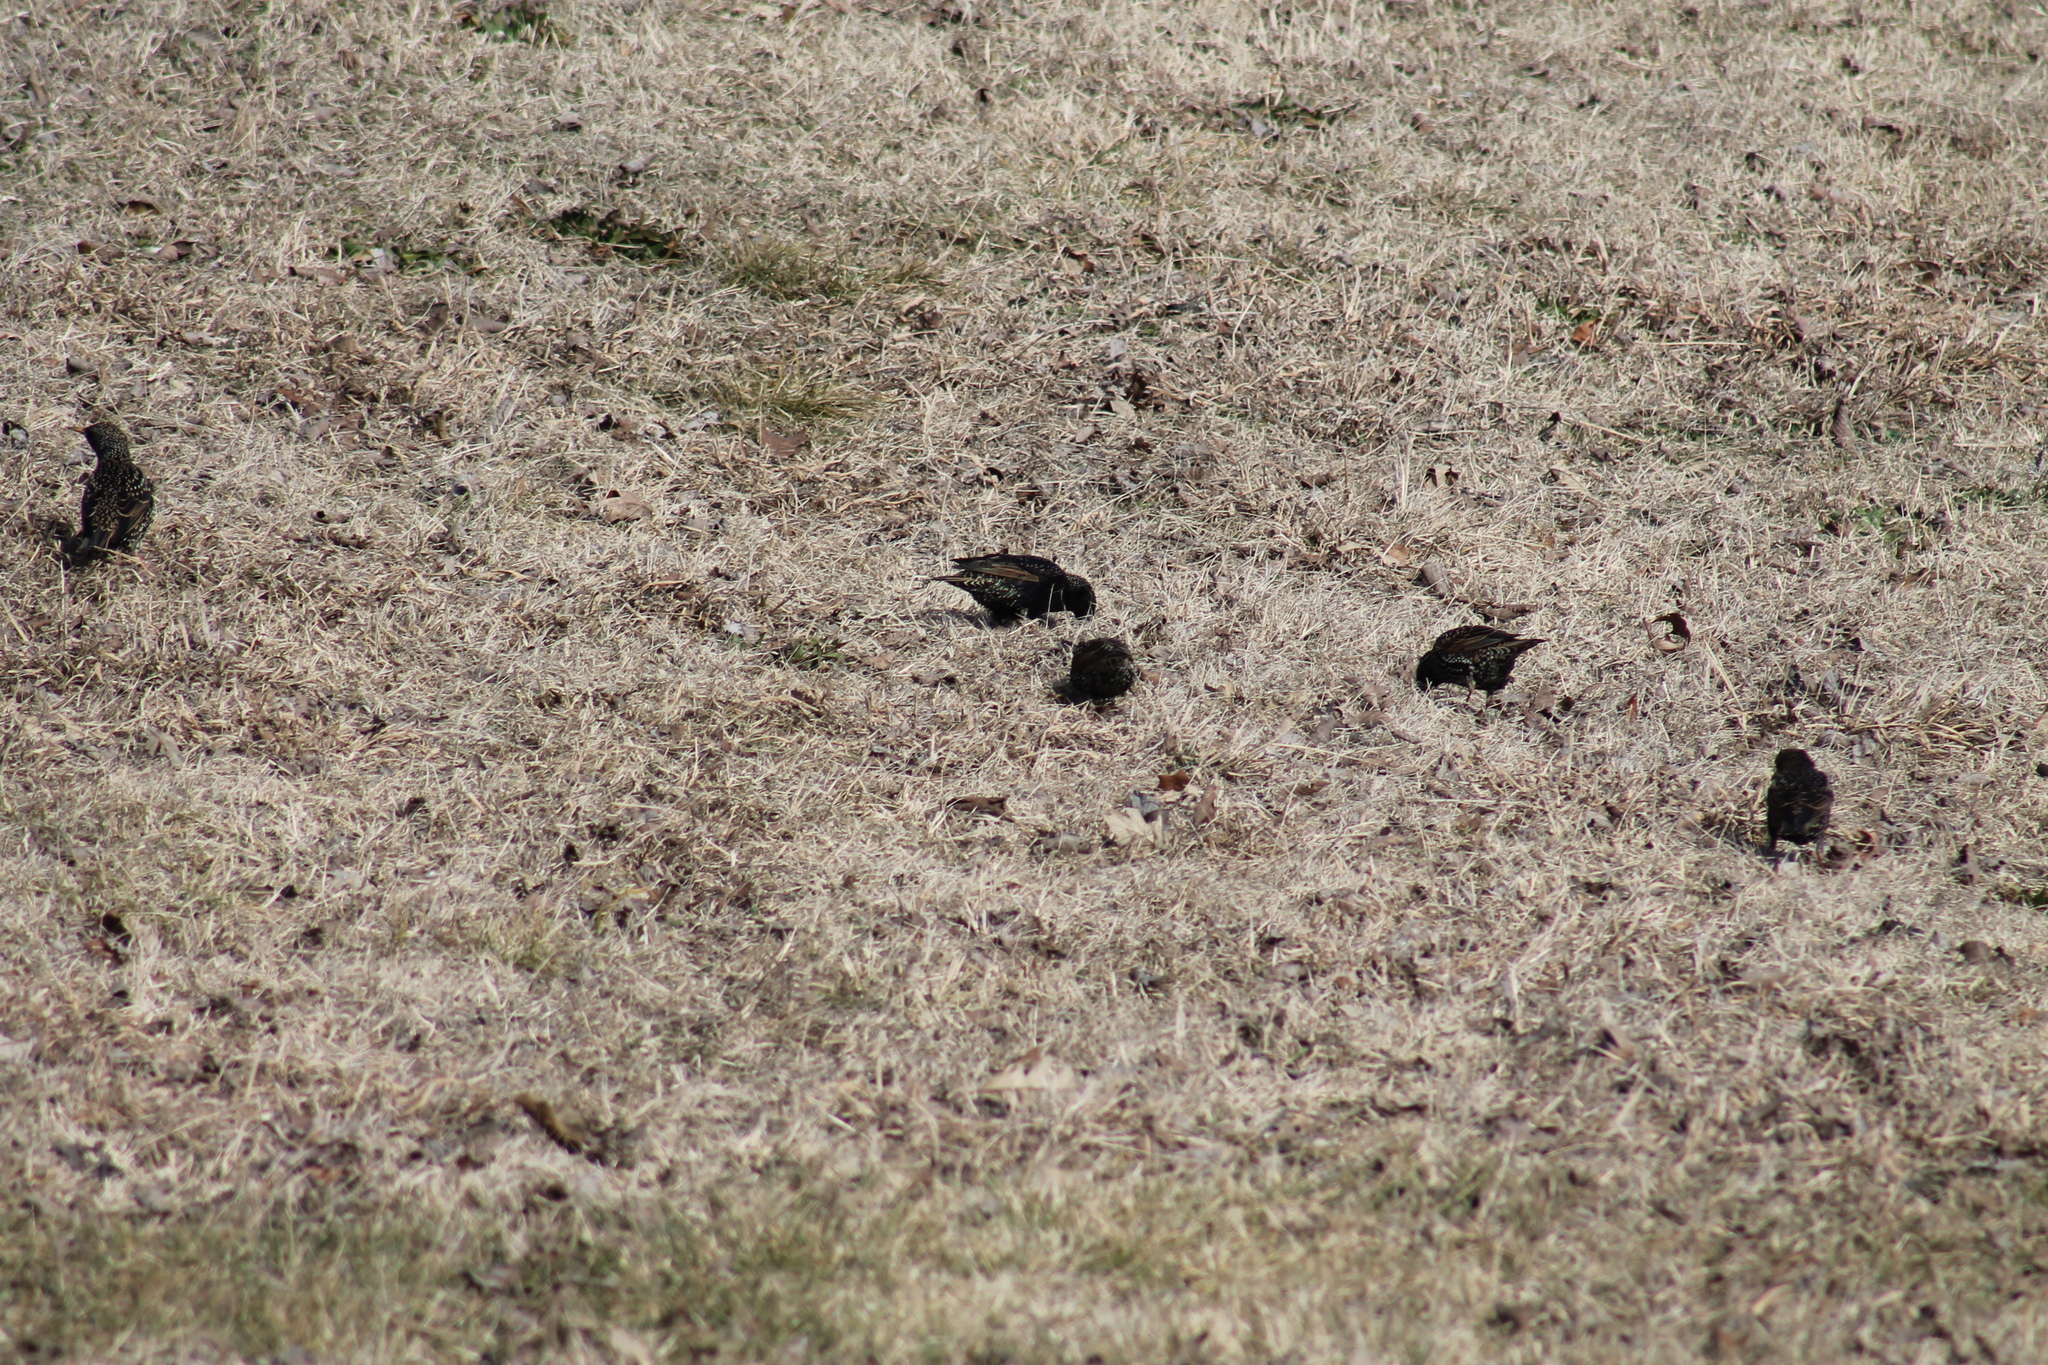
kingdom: Animalia
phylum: Chordata
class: Aves
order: Passeriformes
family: Sturnidae
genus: Sturnus
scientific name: Sturnus vulgaris
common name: Common starling
